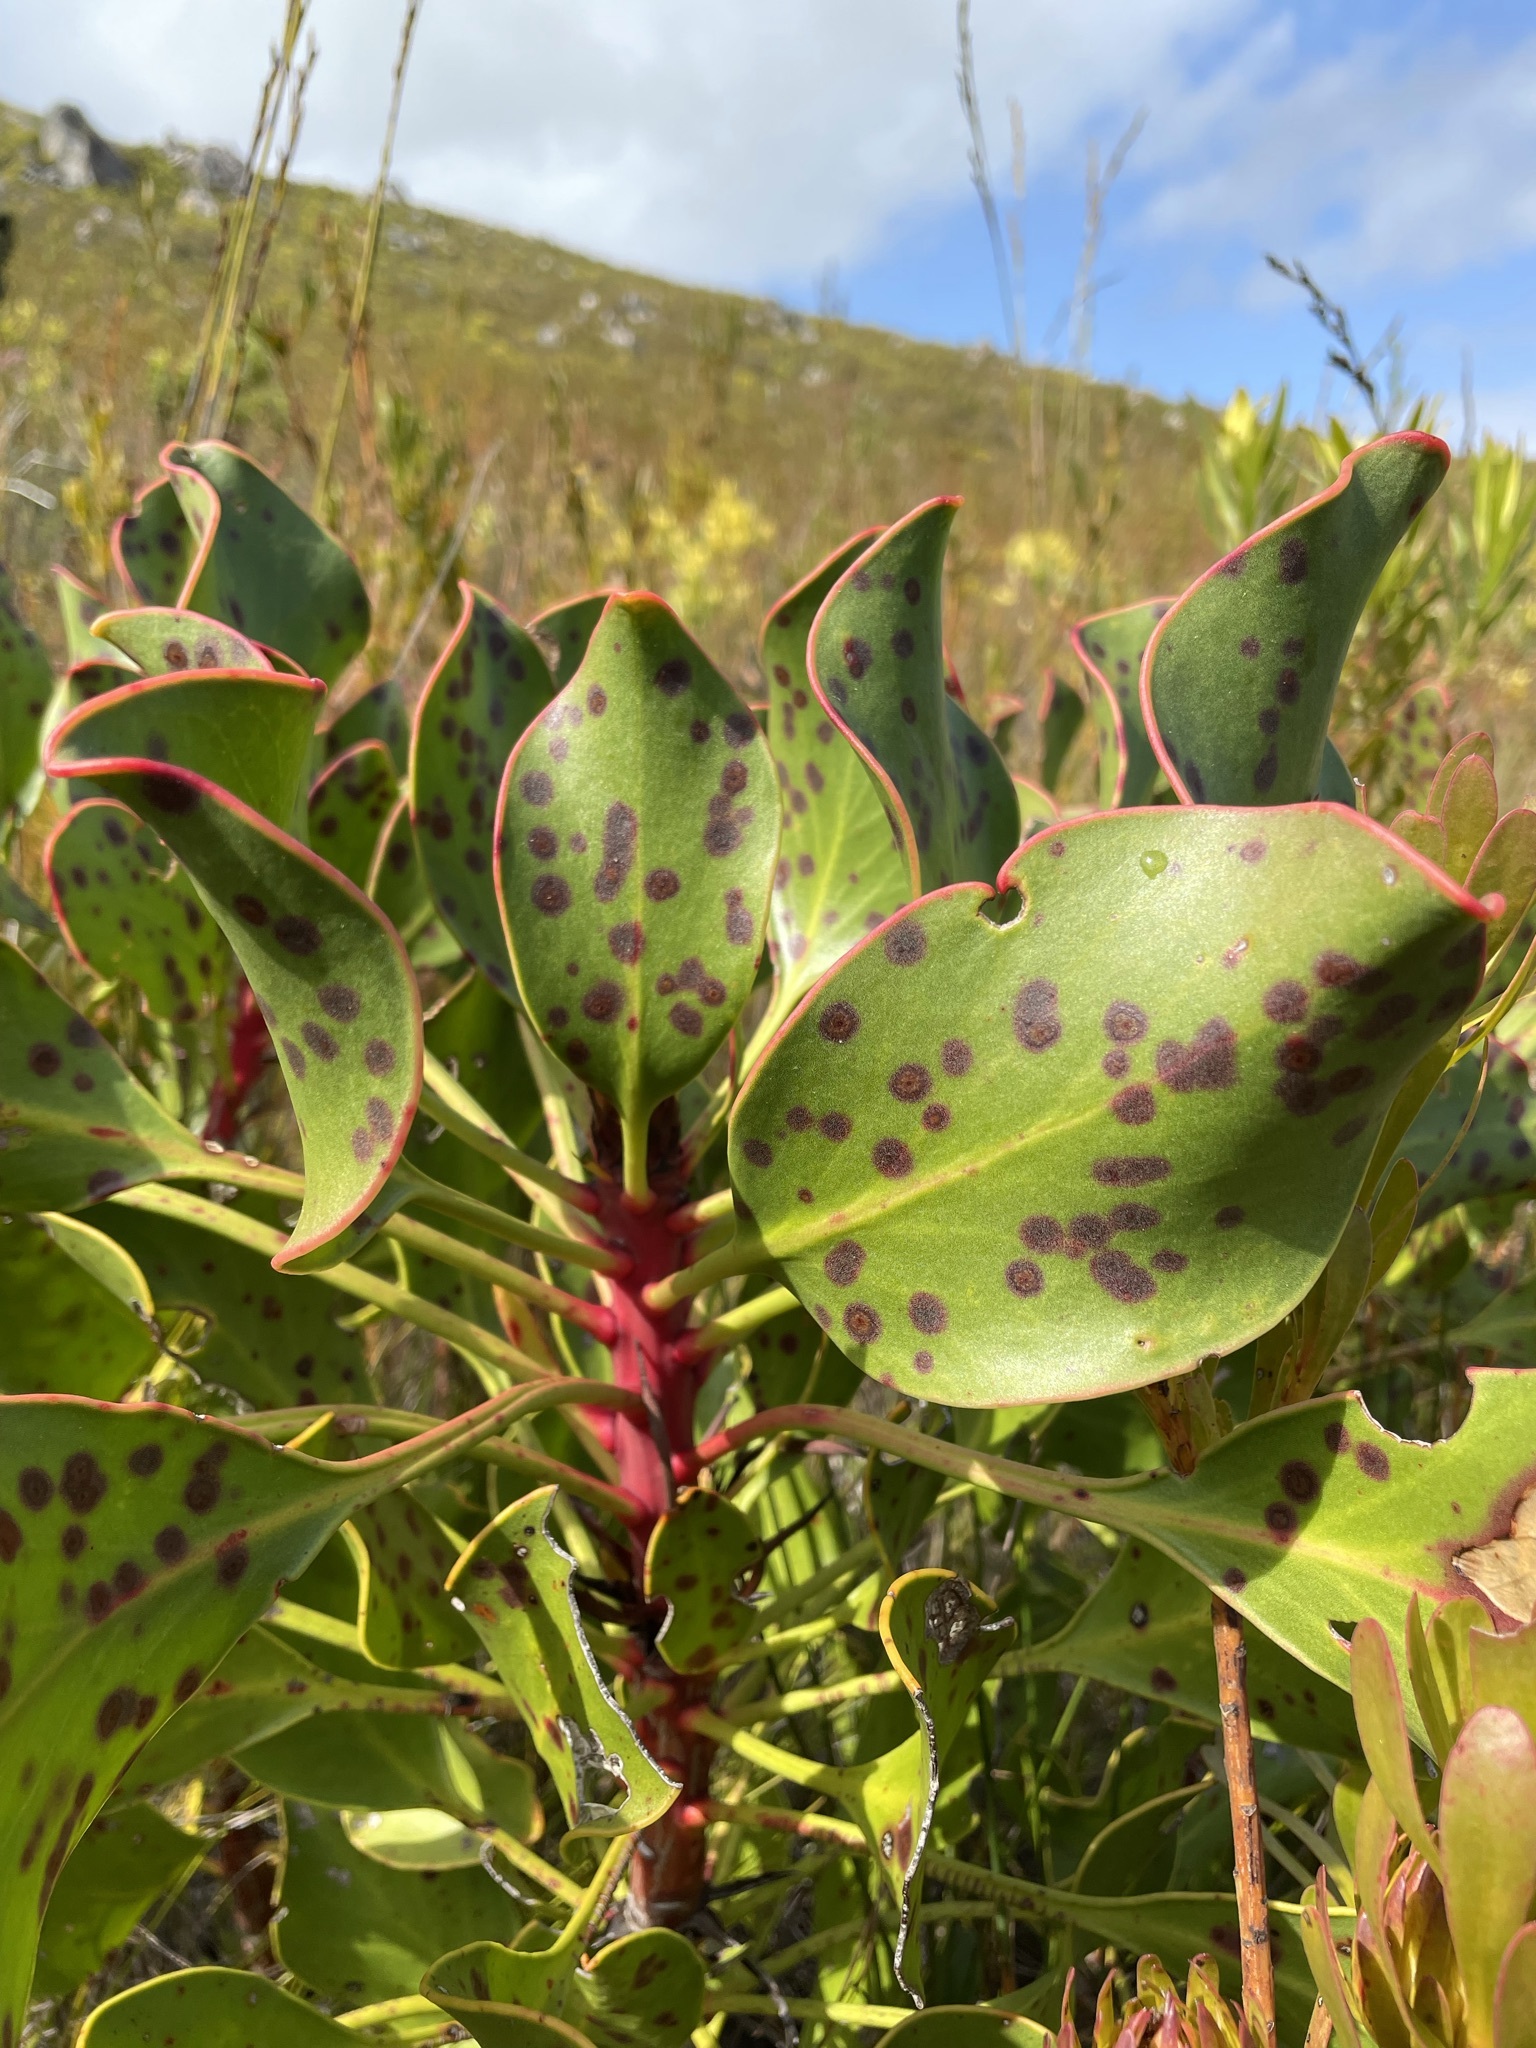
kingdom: Plantae
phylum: Tracheophyta
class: Magnoliopsida
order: Proteales
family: Proteaceae
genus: Protea
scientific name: Protea cynaroides
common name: King protea
